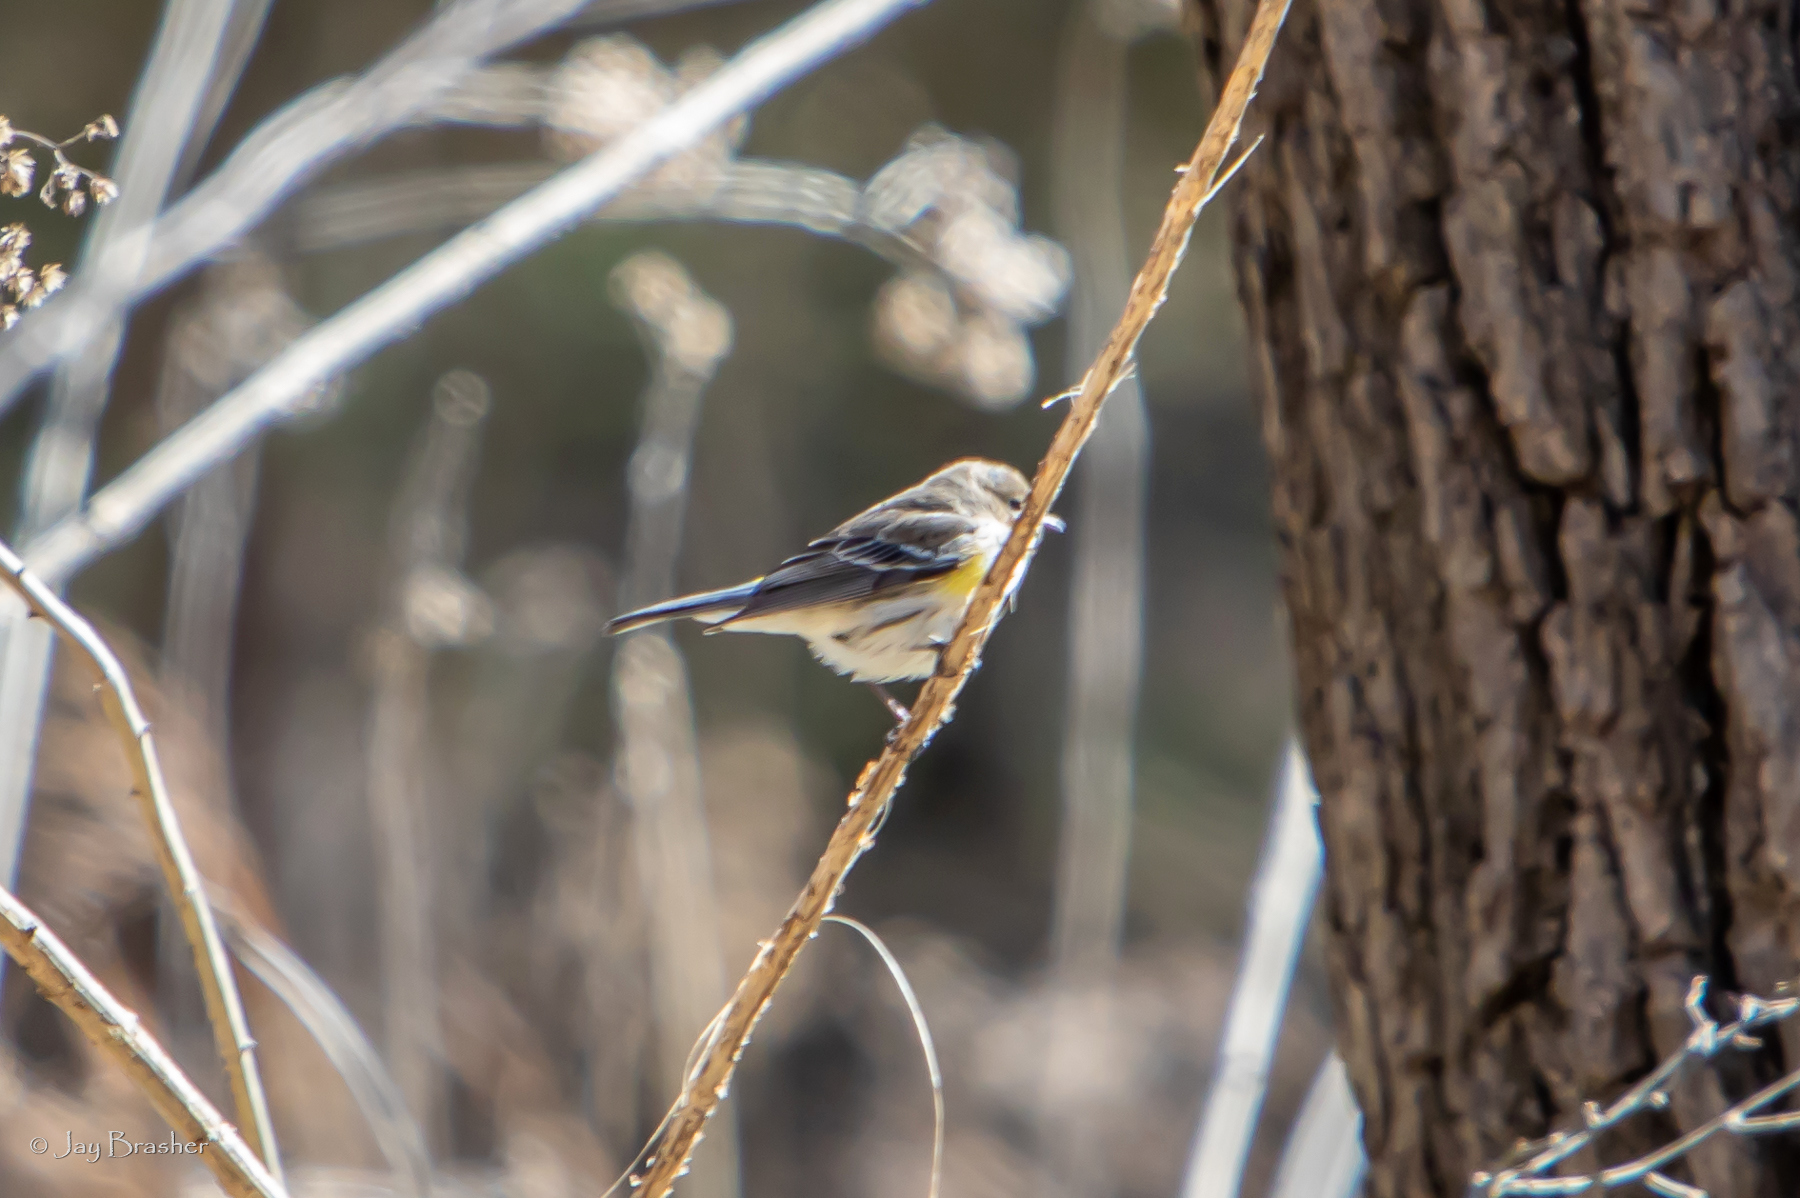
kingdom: Animalia
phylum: Chordata
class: Aves
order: Passeriformes
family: Parulidae
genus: Setophaga
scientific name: Setophaga coronata
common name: Myrtle warbler
